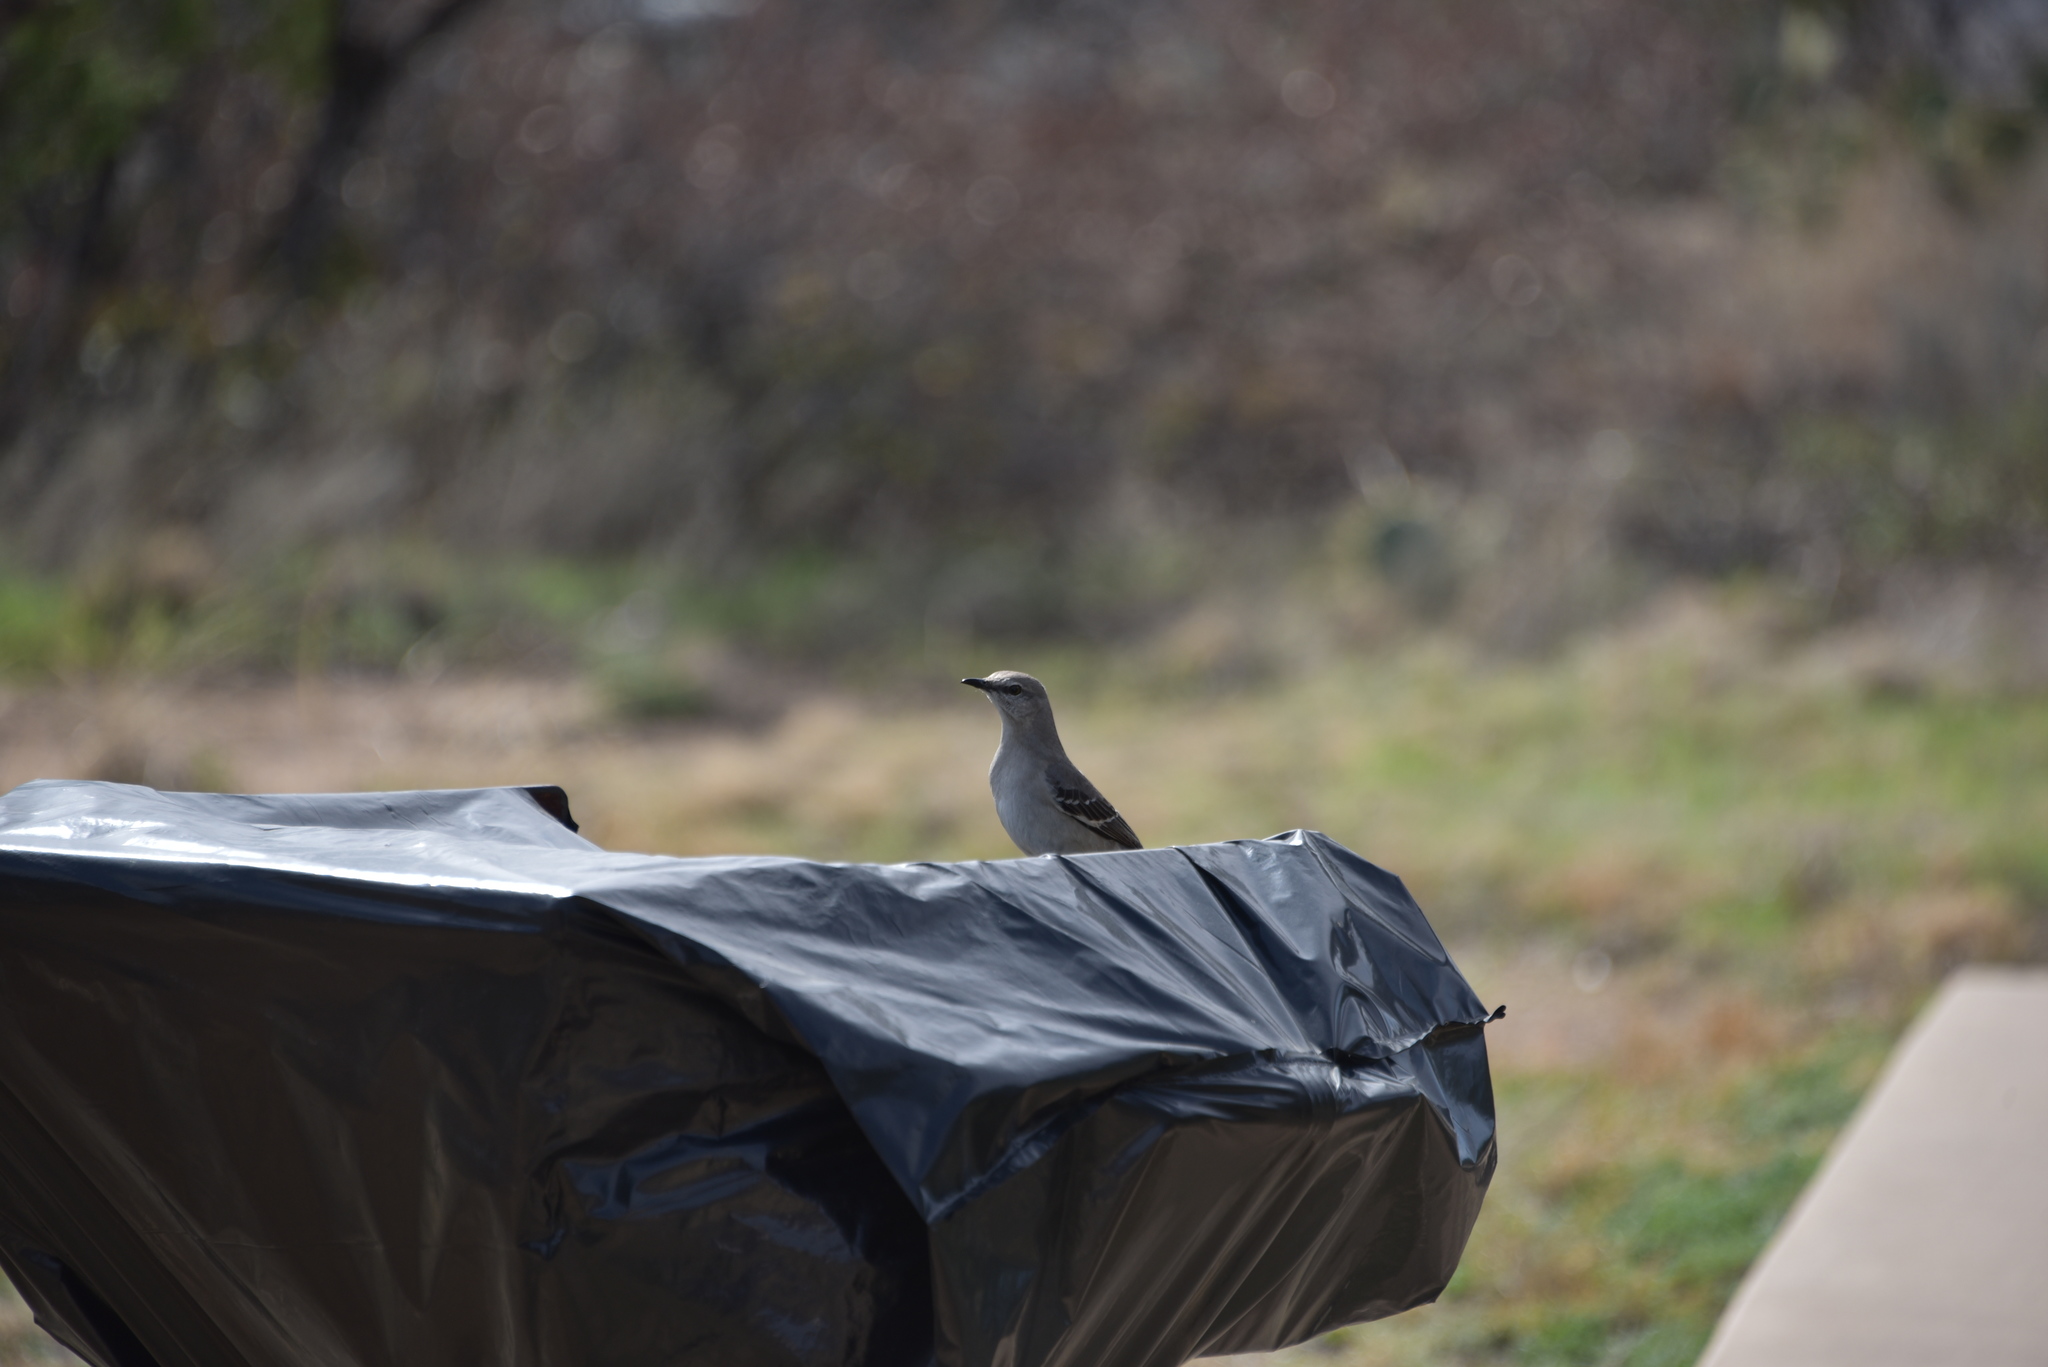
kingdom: Animalia
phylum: Chordata
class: Aves
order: Passeriformes
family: Mimidae
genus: Mimus
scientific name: Mimus polyglottos
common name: Northern mockingbird
